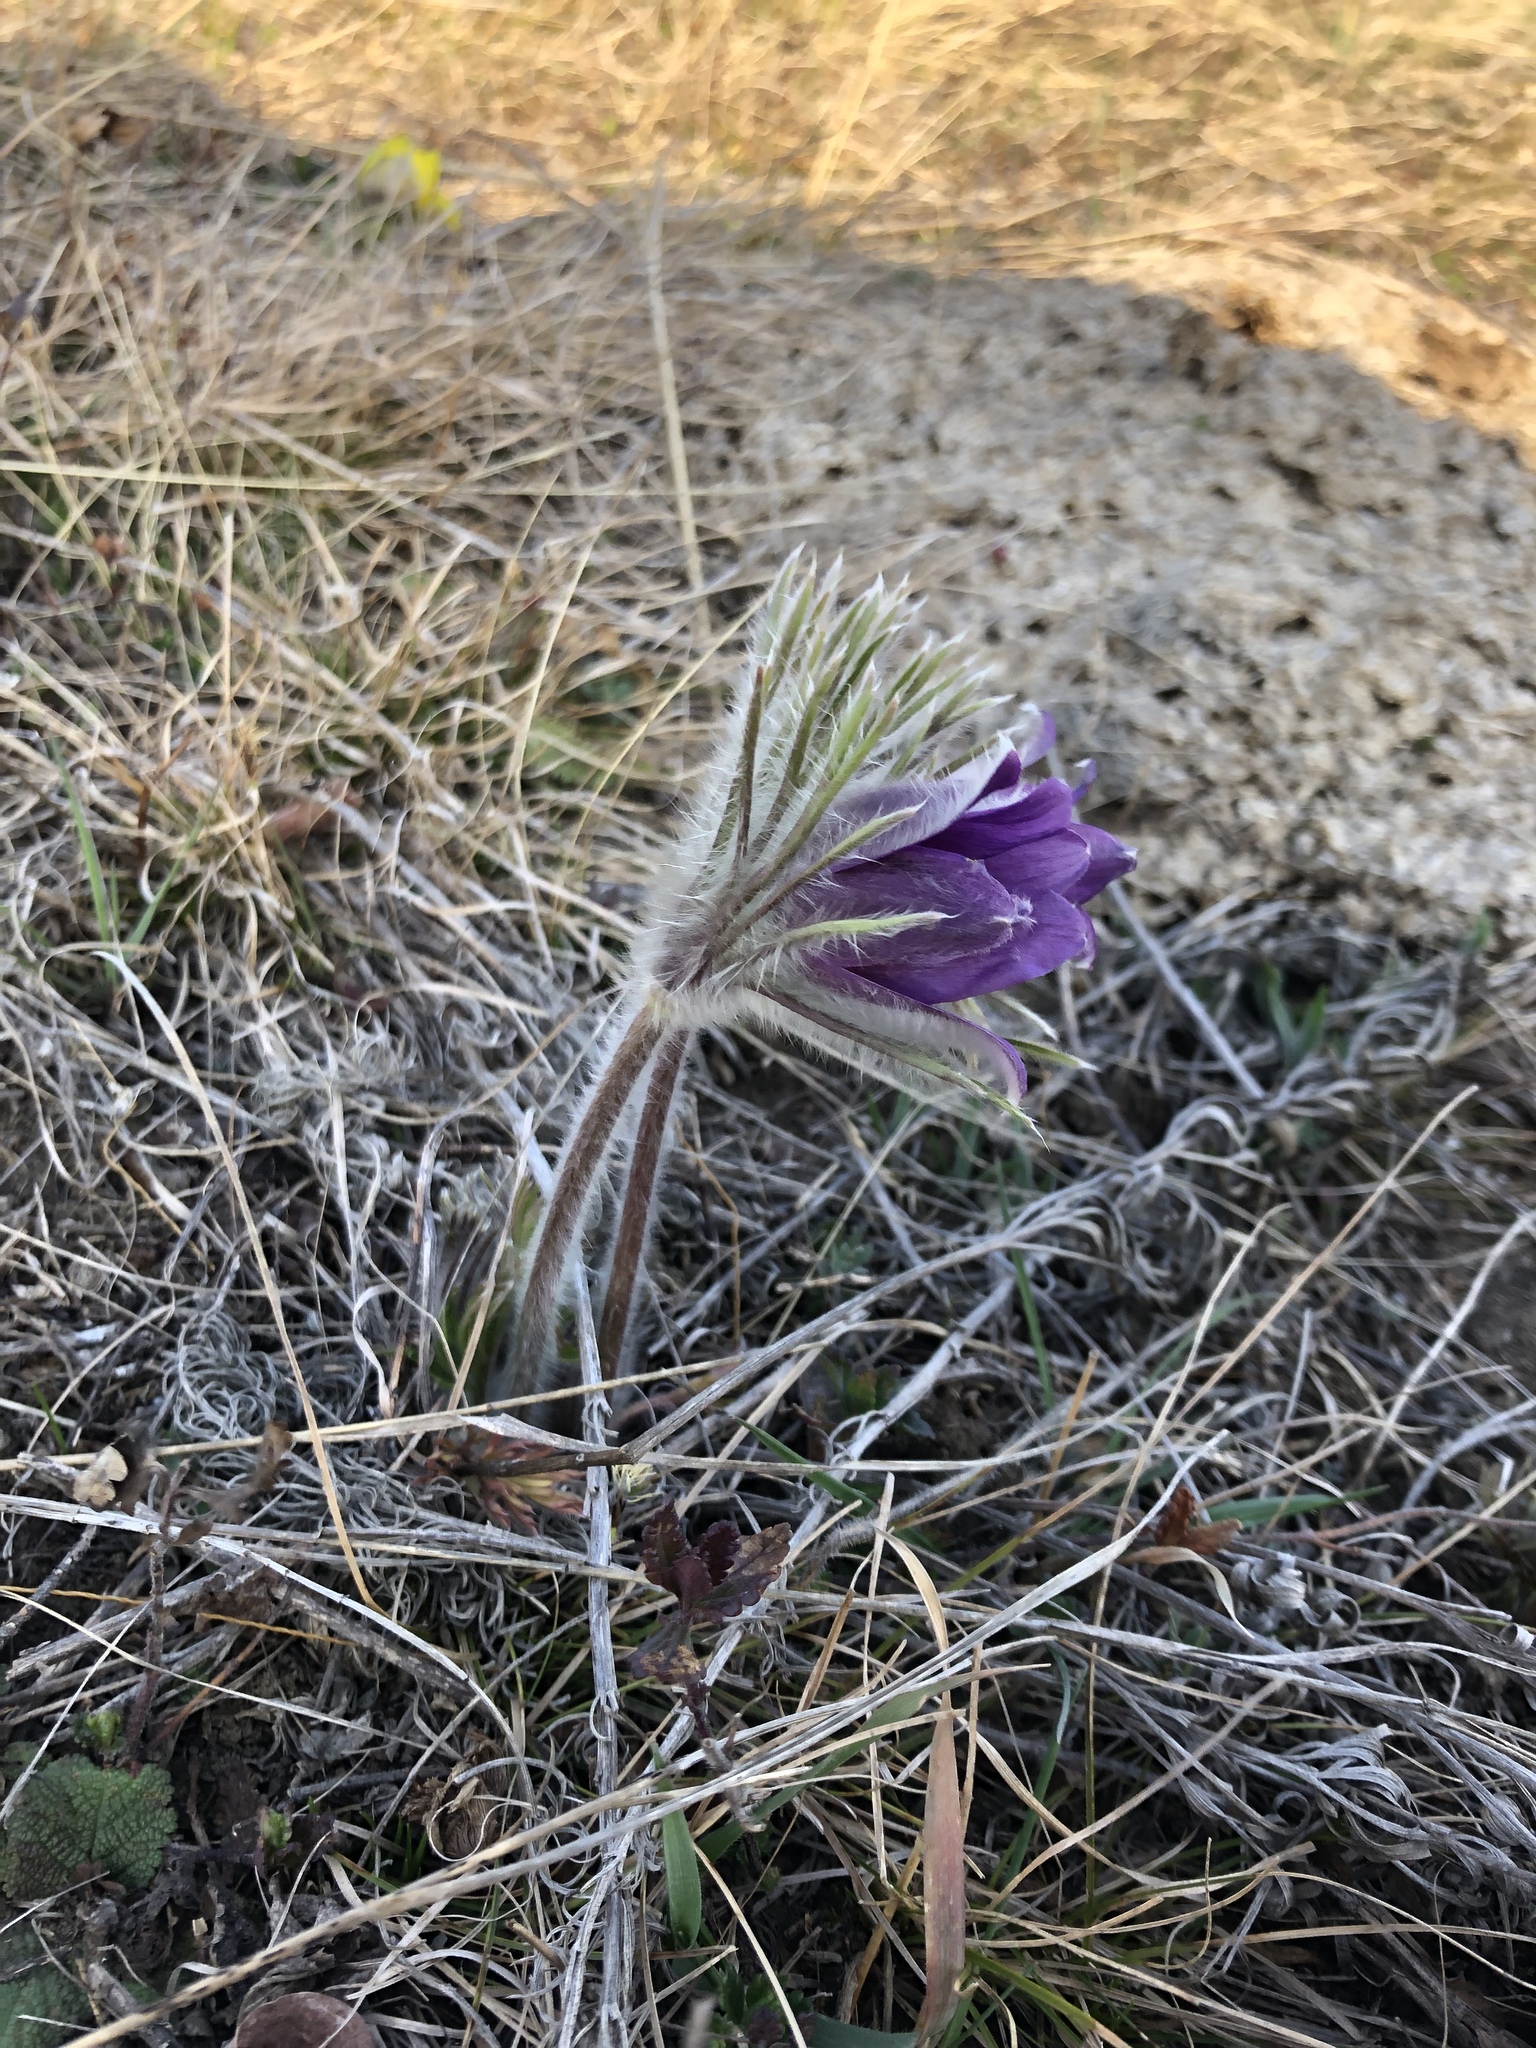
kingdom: Plantae
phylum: Tracheophyta
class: Magnoliopsida
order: Ranunculales
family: Ranunculaceae
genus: Pulsatilla
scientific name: Pulsatilla montana
